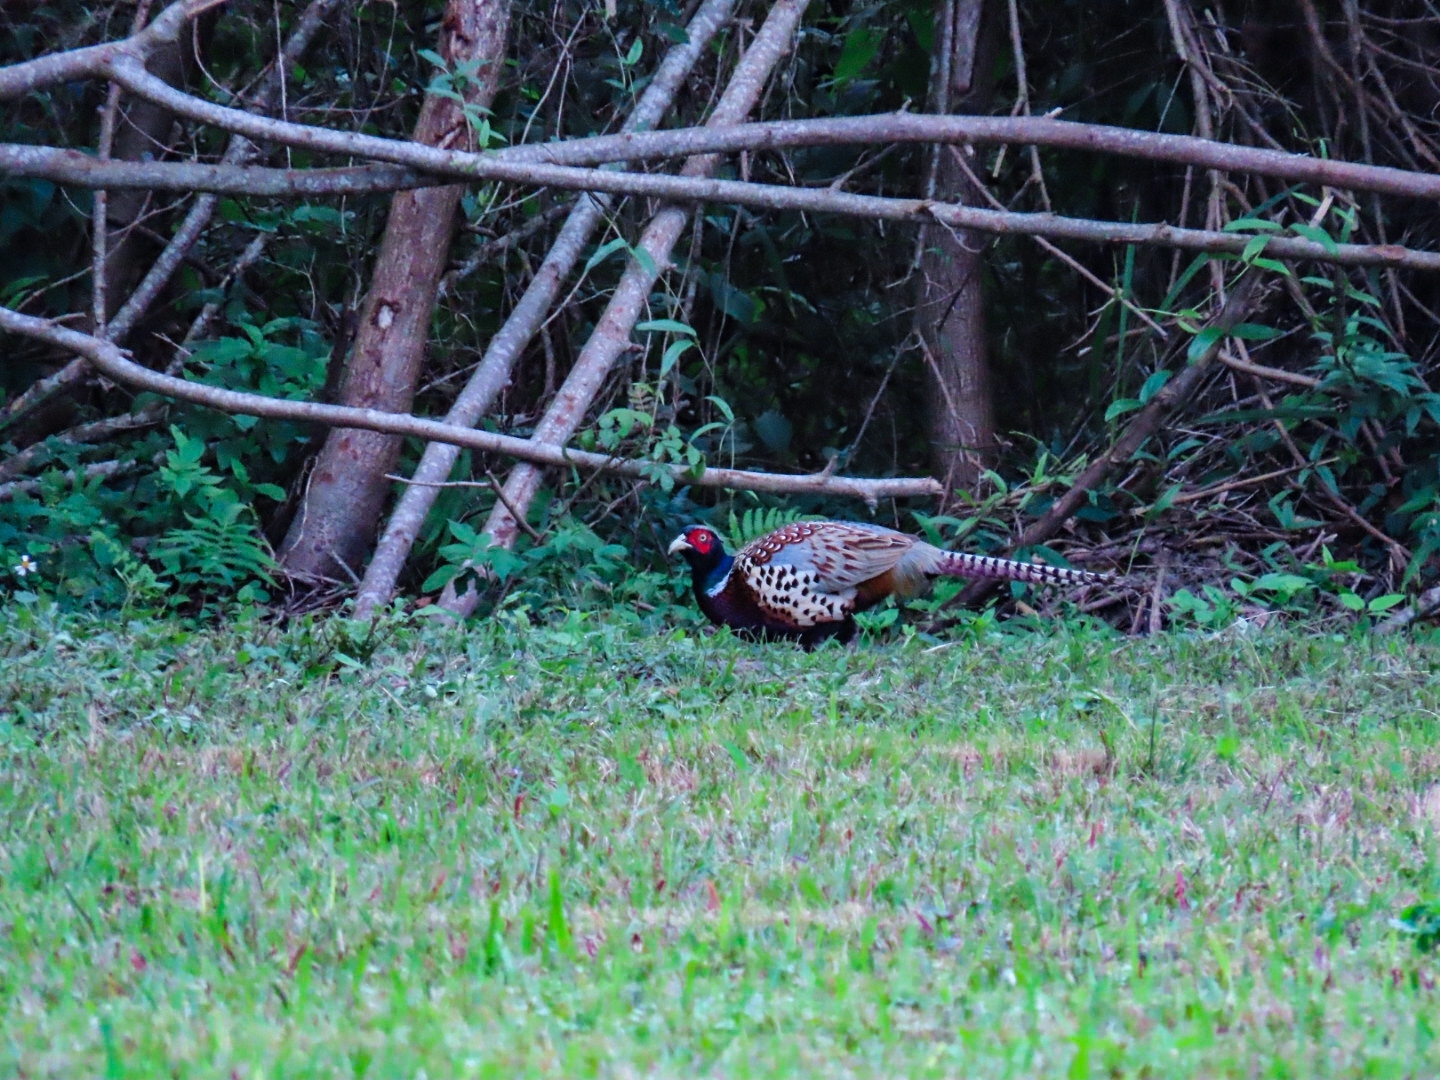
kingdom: Animalia
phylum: Chordata
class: Aves
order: Galliformes
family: Phasianidae
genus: Phasianus
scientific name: Phasianus colchicus
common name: Common pheasant
